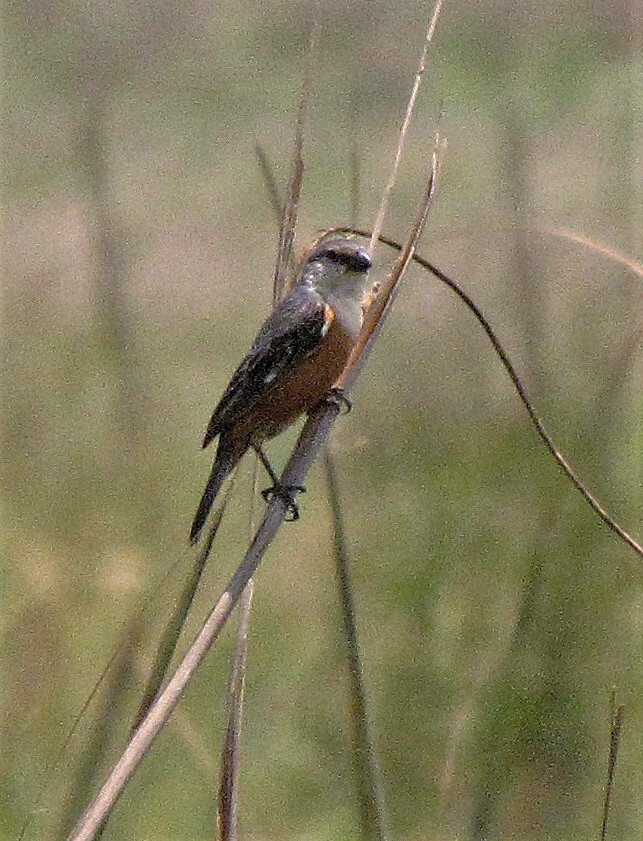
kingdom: Animalia
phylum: Chordata
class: Aves
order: Passeriformes
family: Thraupidae
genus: Sporophila
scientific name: Sporophila palustris
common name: Marsh seedeater
